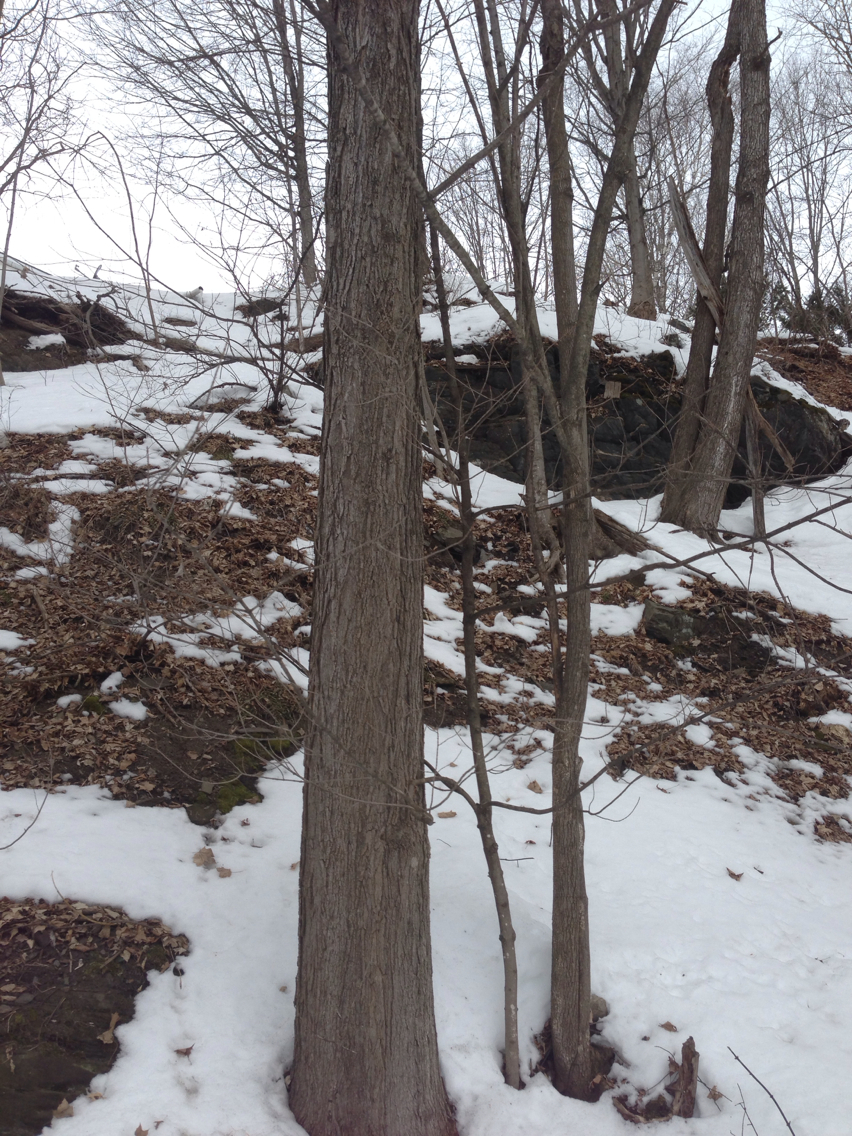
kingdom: Plantae
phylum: Tracheophyta
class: Magnoliopsida
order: Sapindales
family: Sapindaceae
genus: Acer
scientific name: Acer saccharum
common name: Sugar maple
